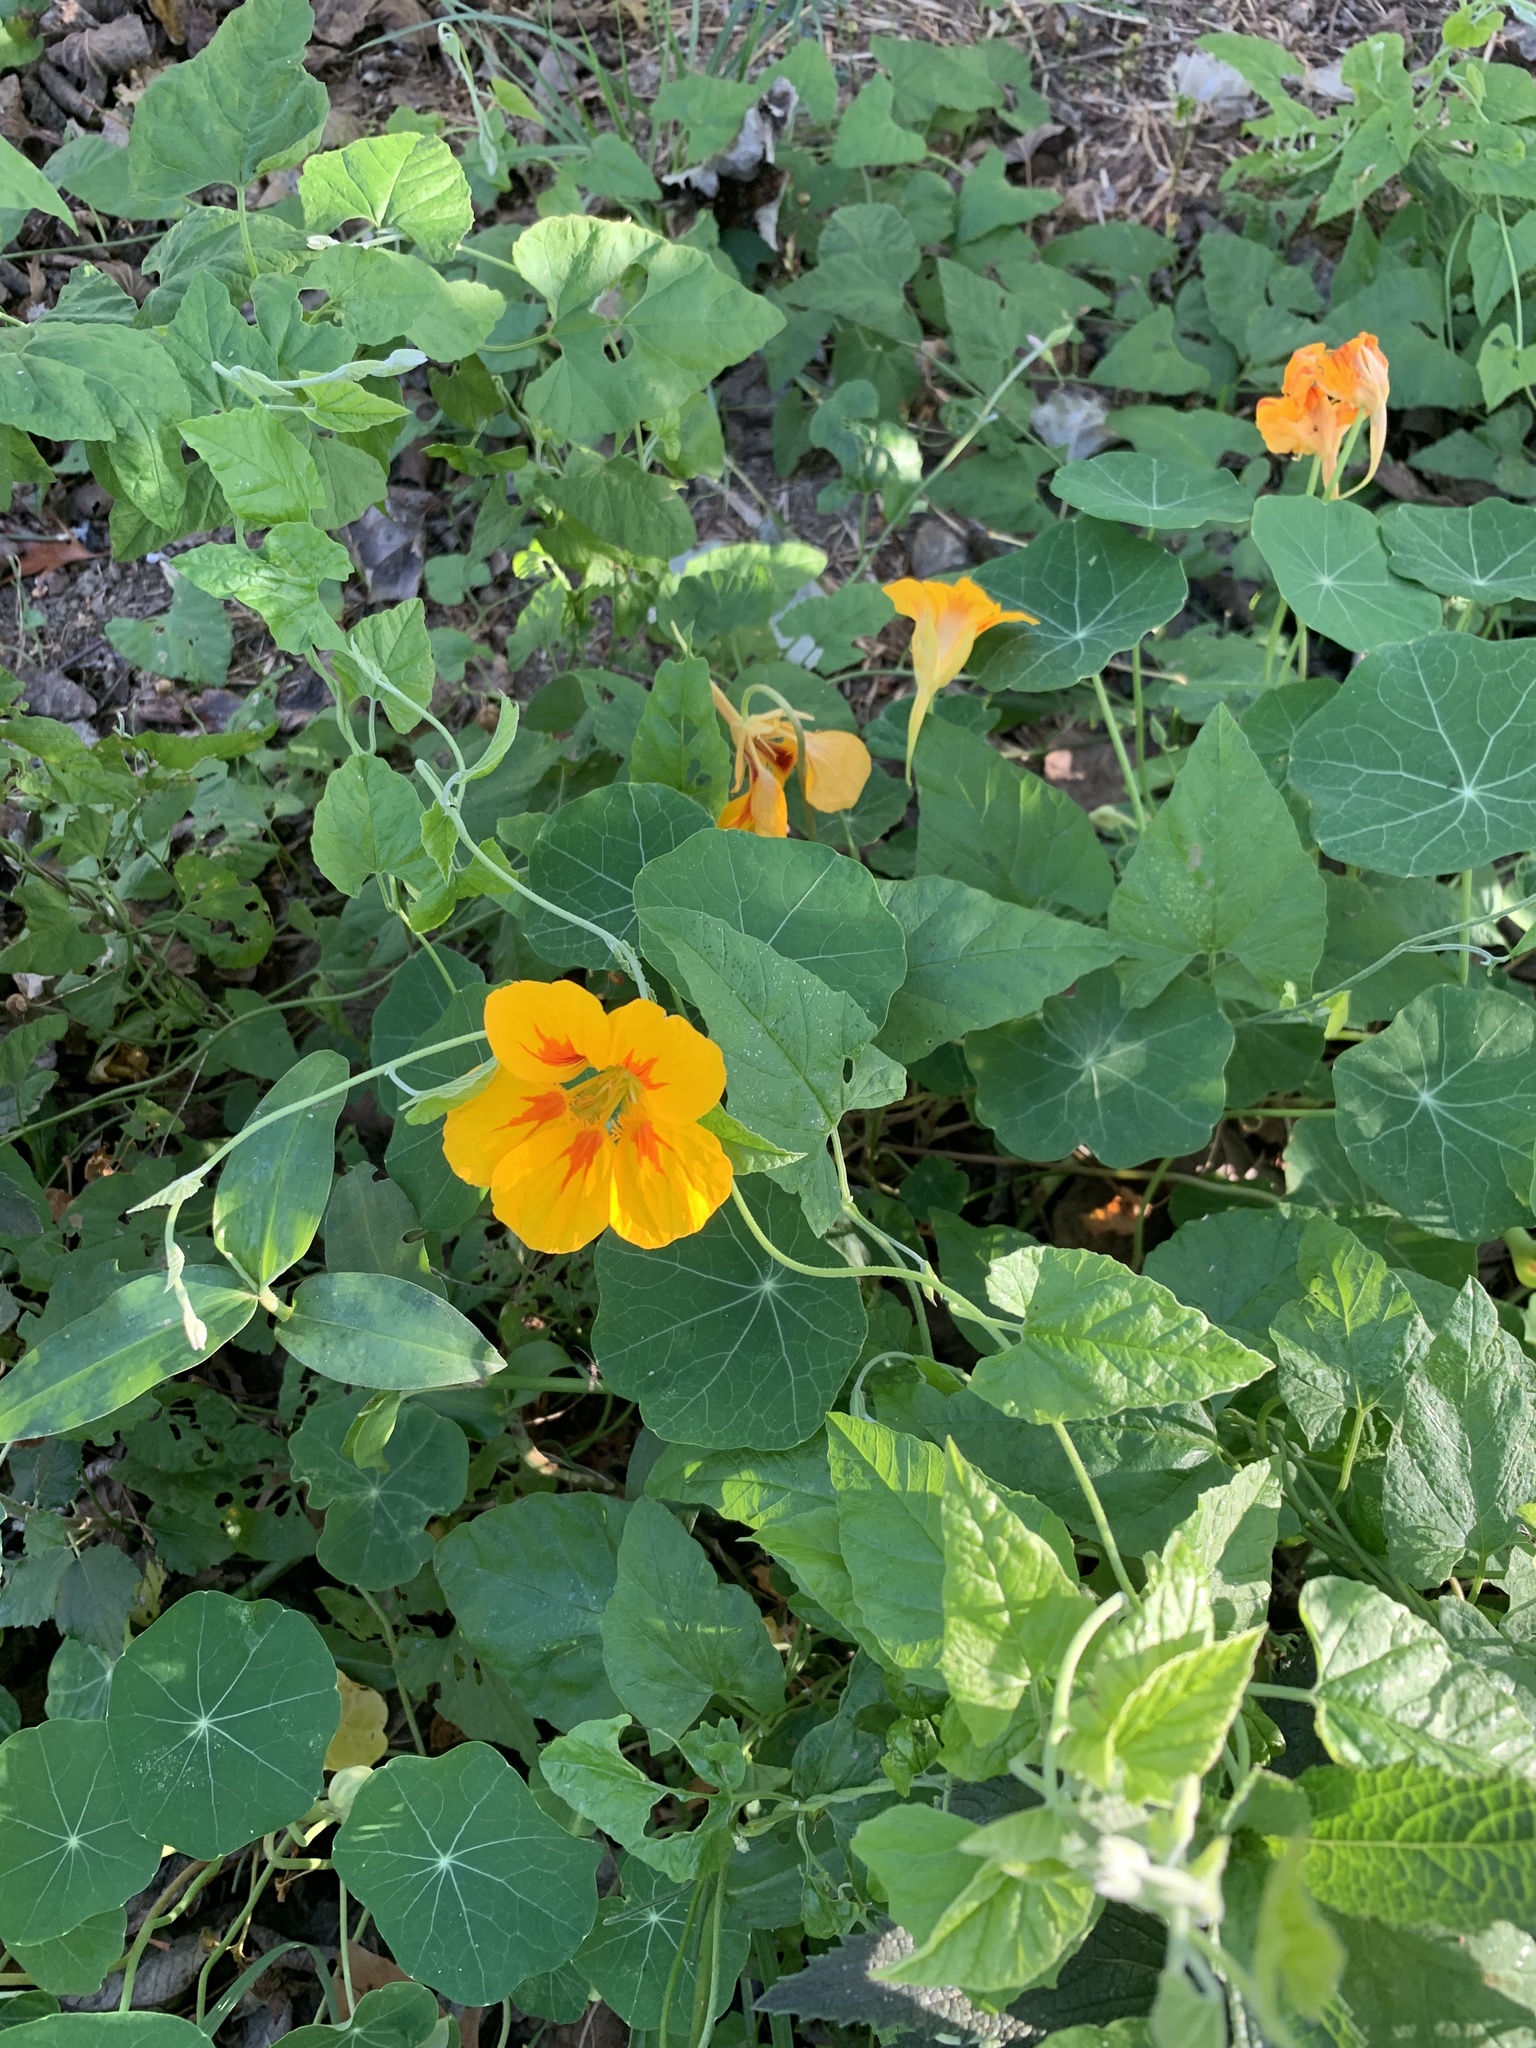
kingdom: Plantae
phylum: Tracheophyta
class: Magnoliopsida
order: Brassicales
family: Tropaeolaceae
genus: Tropaeolum
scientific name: Tropaeolum majus
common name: Nasturtium
